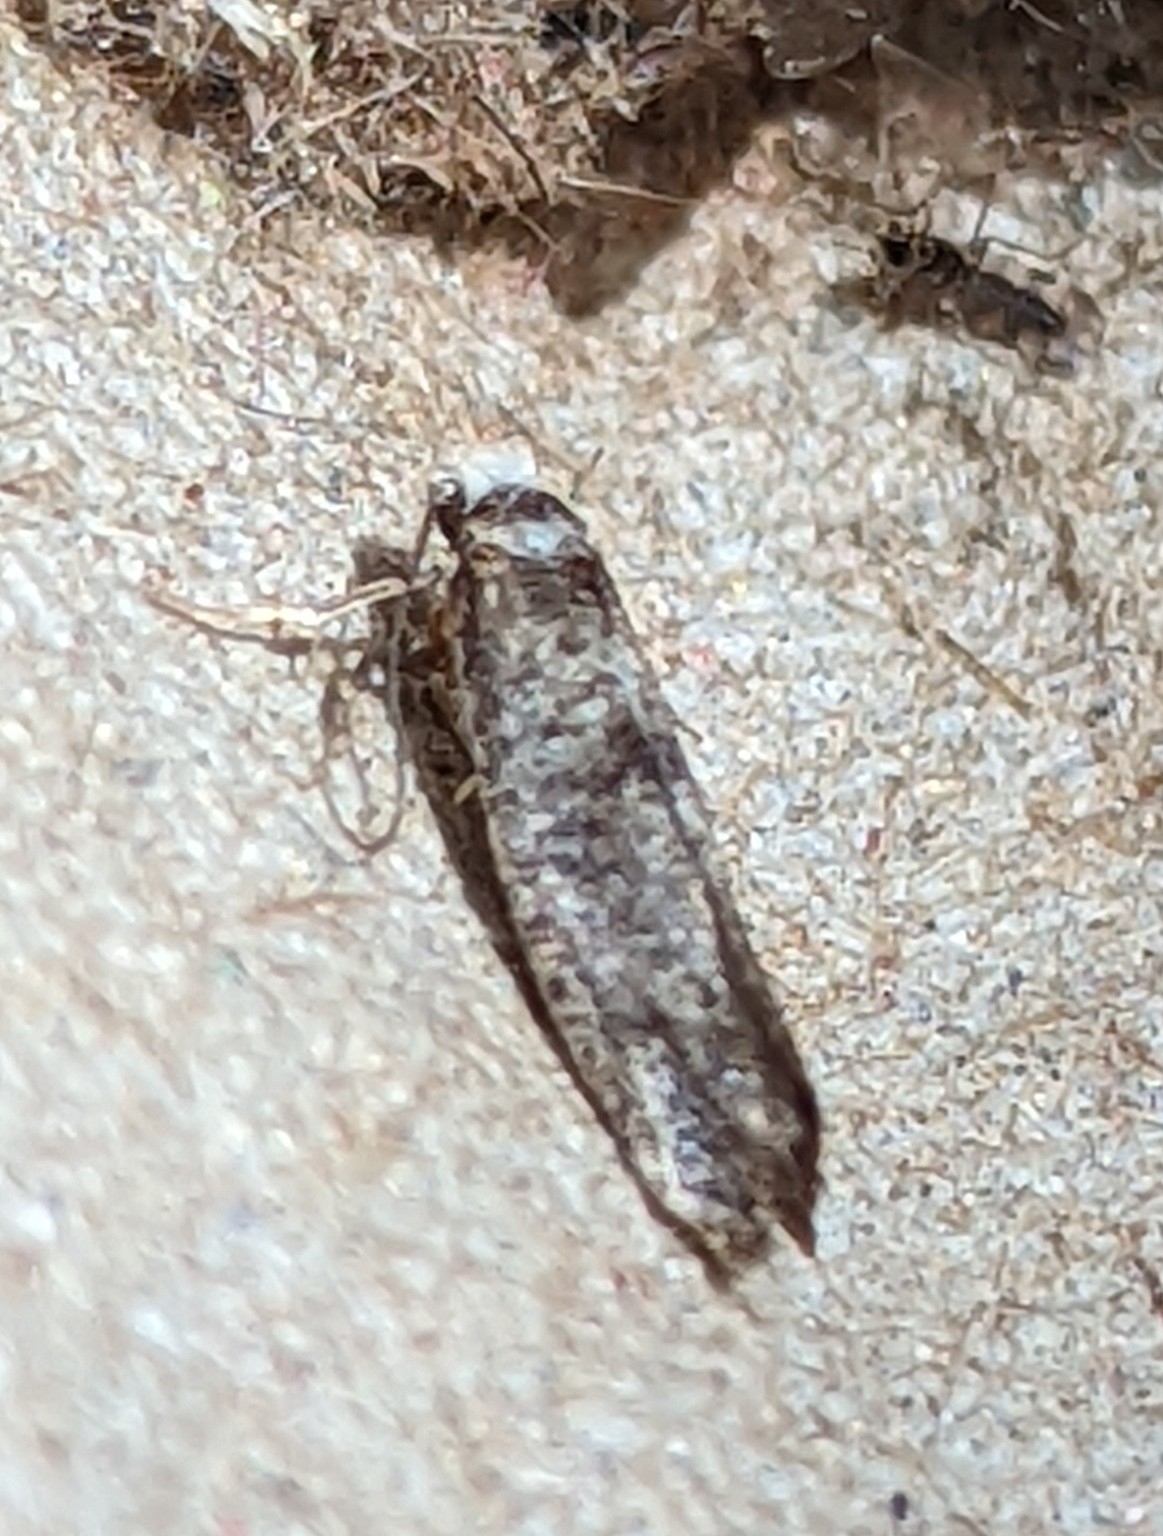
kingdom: Animalia
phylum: Arthropoda
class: Insecta
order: Lepidoptera
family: Oecophoridae
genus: Endrosis
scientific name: Endrosis sarcitrella
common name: White-shouldered house moth
